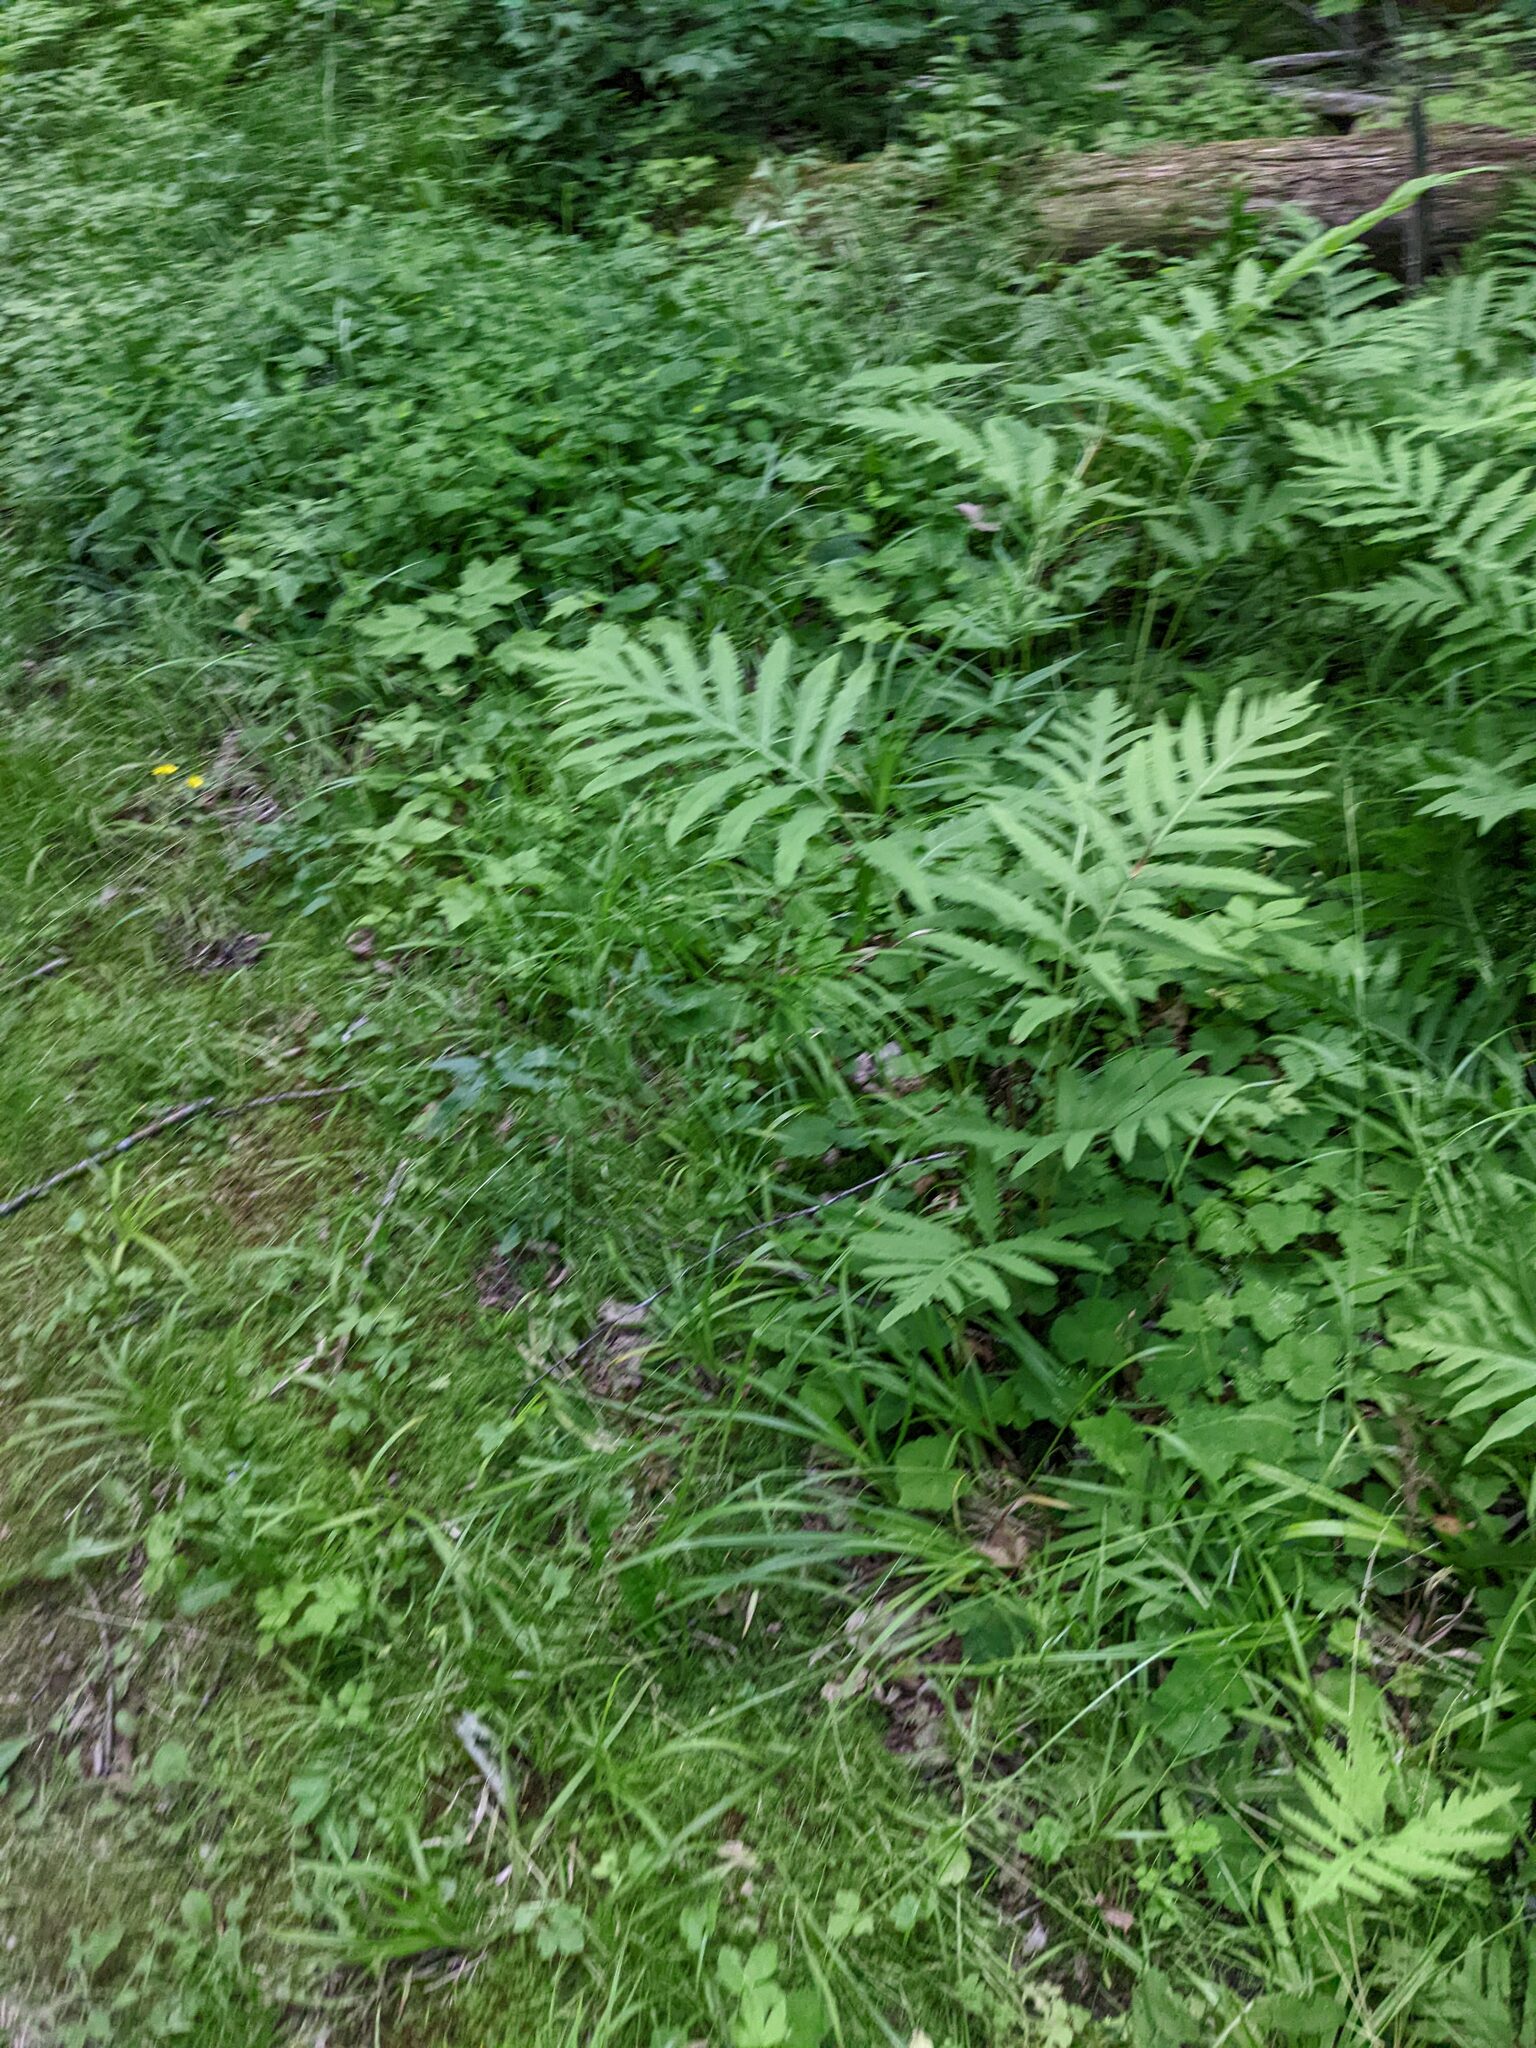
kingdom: Plantae
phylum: Tracheophyta
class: Polypodiopsida
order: Polypodiales
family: Onocleaceae
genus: Onoclea
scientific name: Onoclea sensibilis
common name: Sensitive fern
